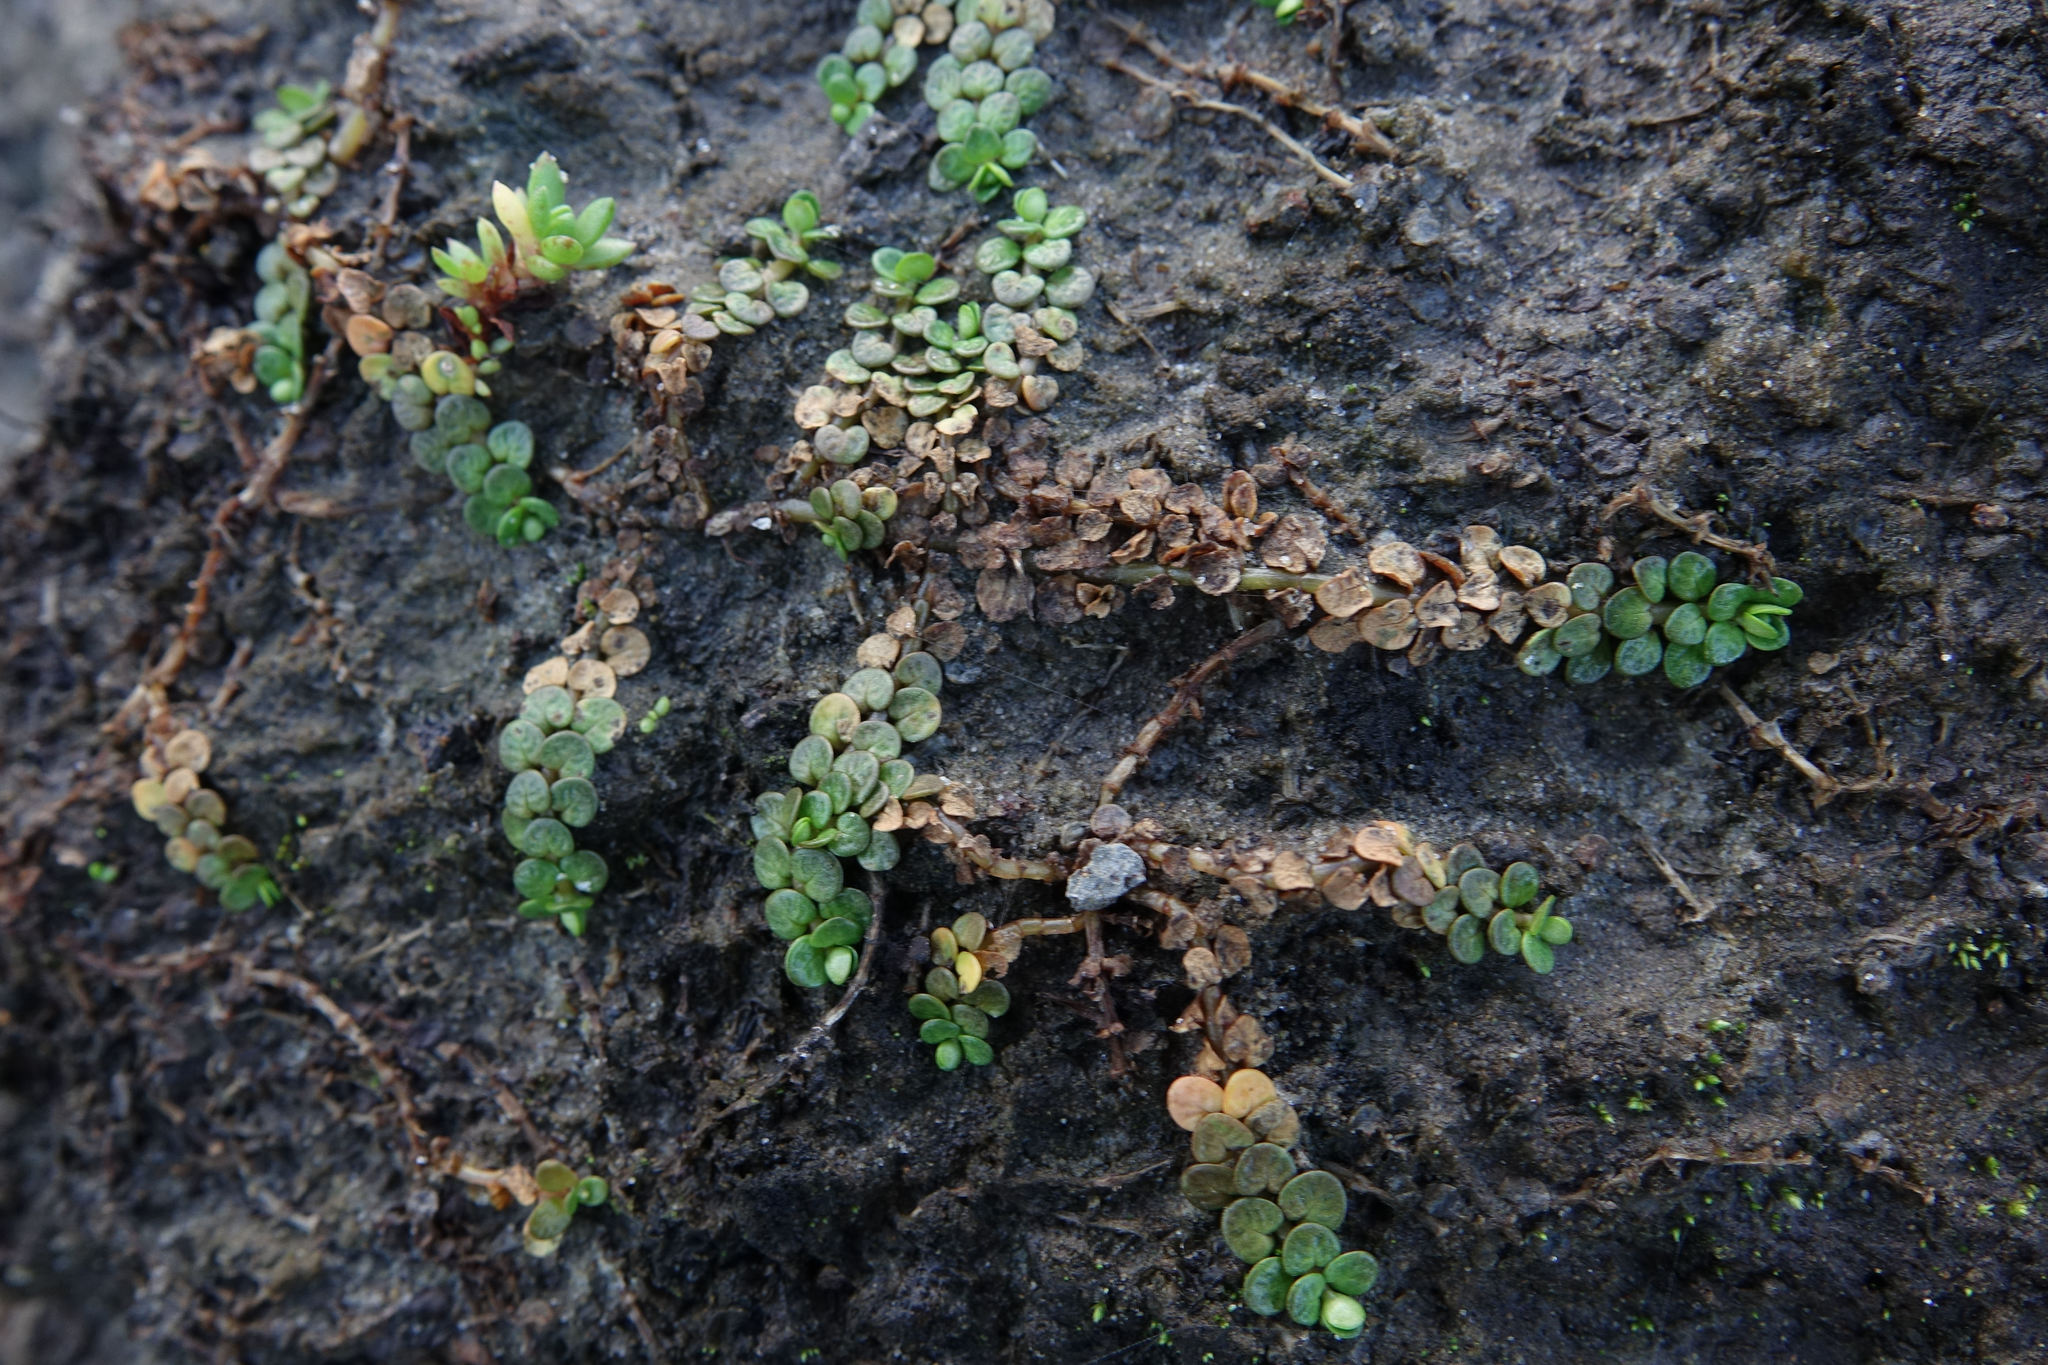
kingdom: Plantae
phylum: Tracheophyta
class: Magnoliopsida
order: Myrtales
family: Onagraceae
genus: Epilobium
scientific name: Epilobium komarovianum
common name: Bronzy willowherb
